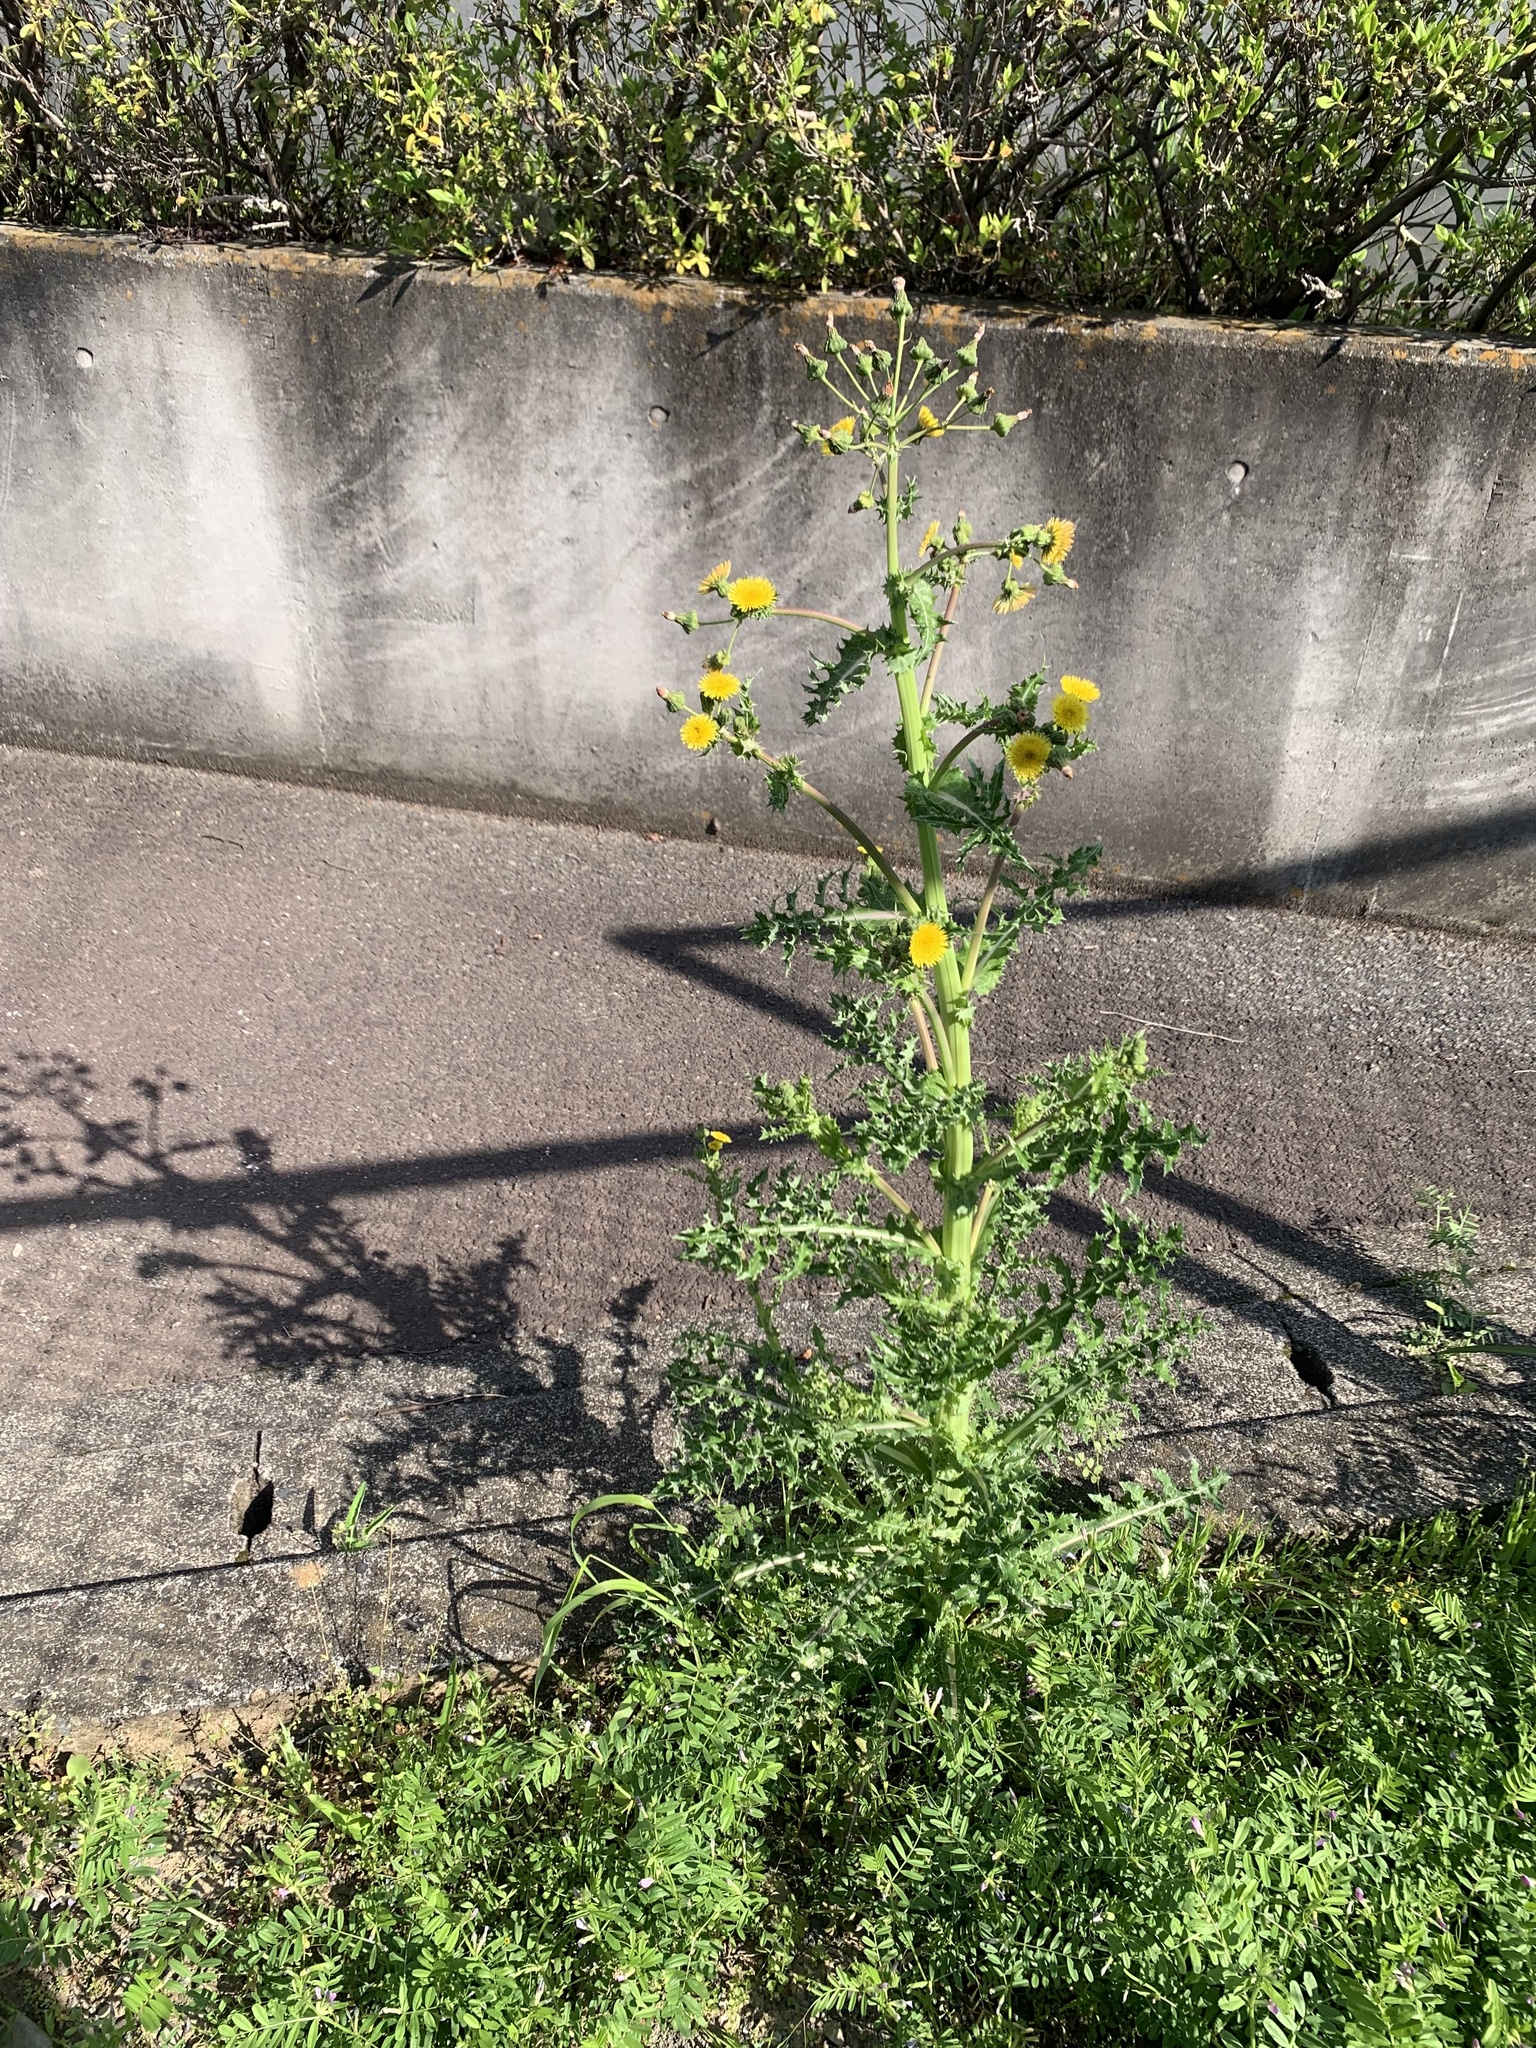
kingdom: Plantae
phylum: Tracheophyta
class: Magnoliopsida
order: Asterales
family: Asteraceae
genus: Sonchus
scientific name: Sonchus asper
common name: Prickly sow-thistle
